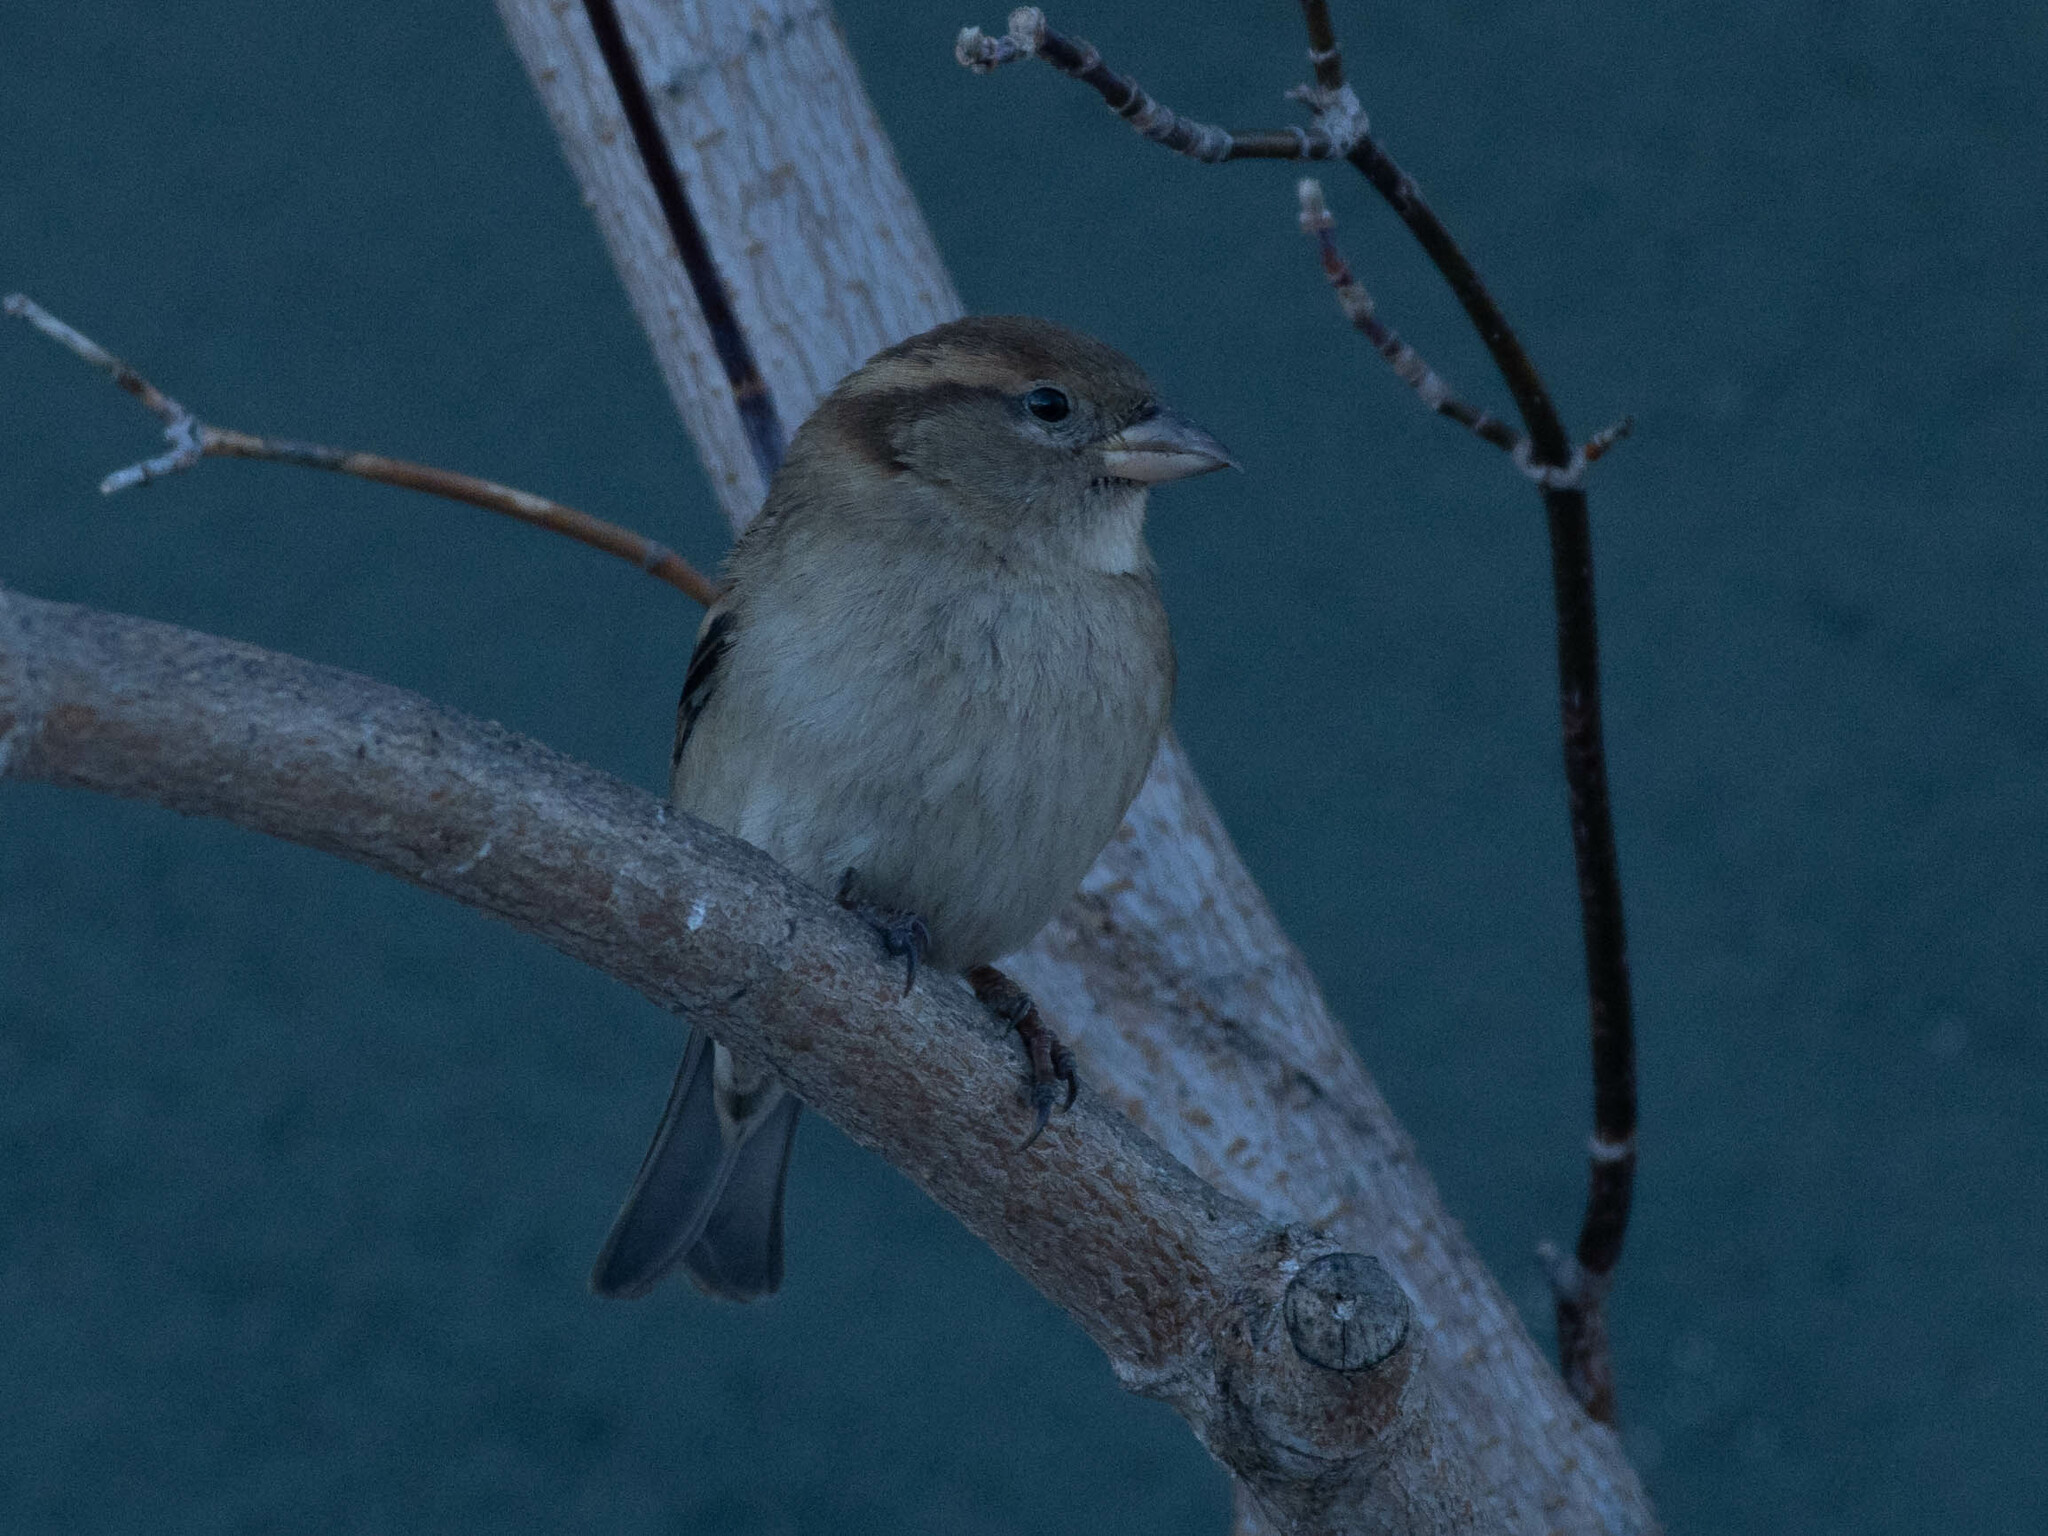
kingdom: Animalia
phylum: Chordata
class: Aves
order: Passeriformes
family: Passeridae
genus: Passer
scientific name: Passer domesticus
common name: House sparrow
